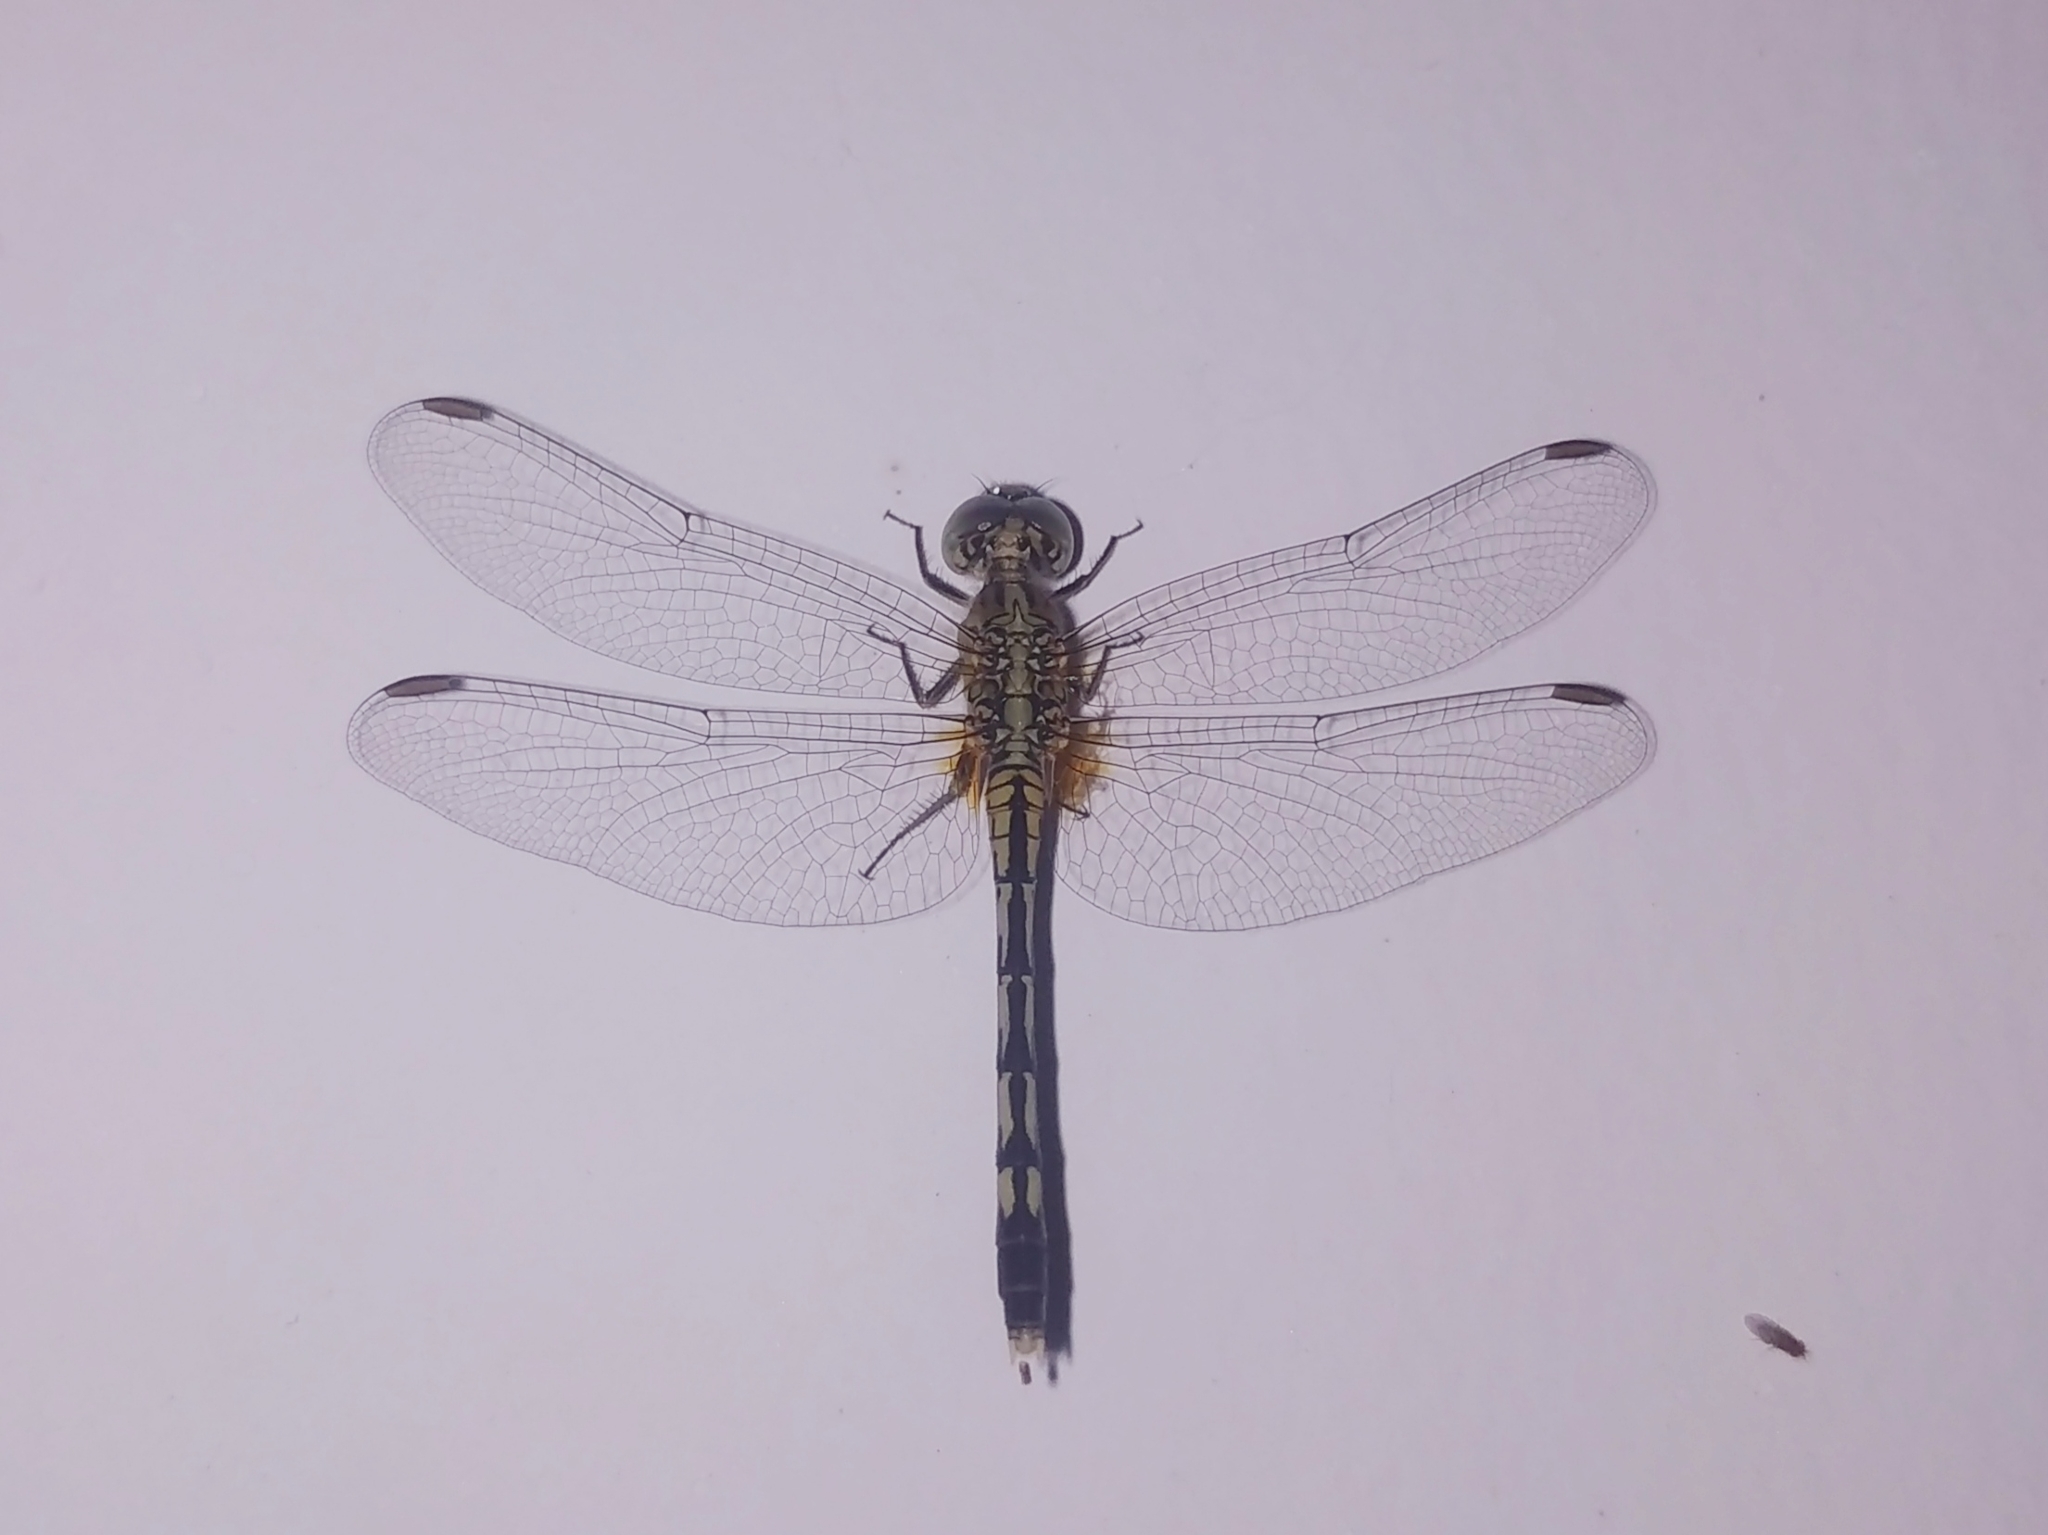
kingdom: Animalia
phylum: Arthropoda
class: Insecta
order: Odonata
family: Libellulidae
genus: Diplacodes
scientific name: Diplacodes trivialis
